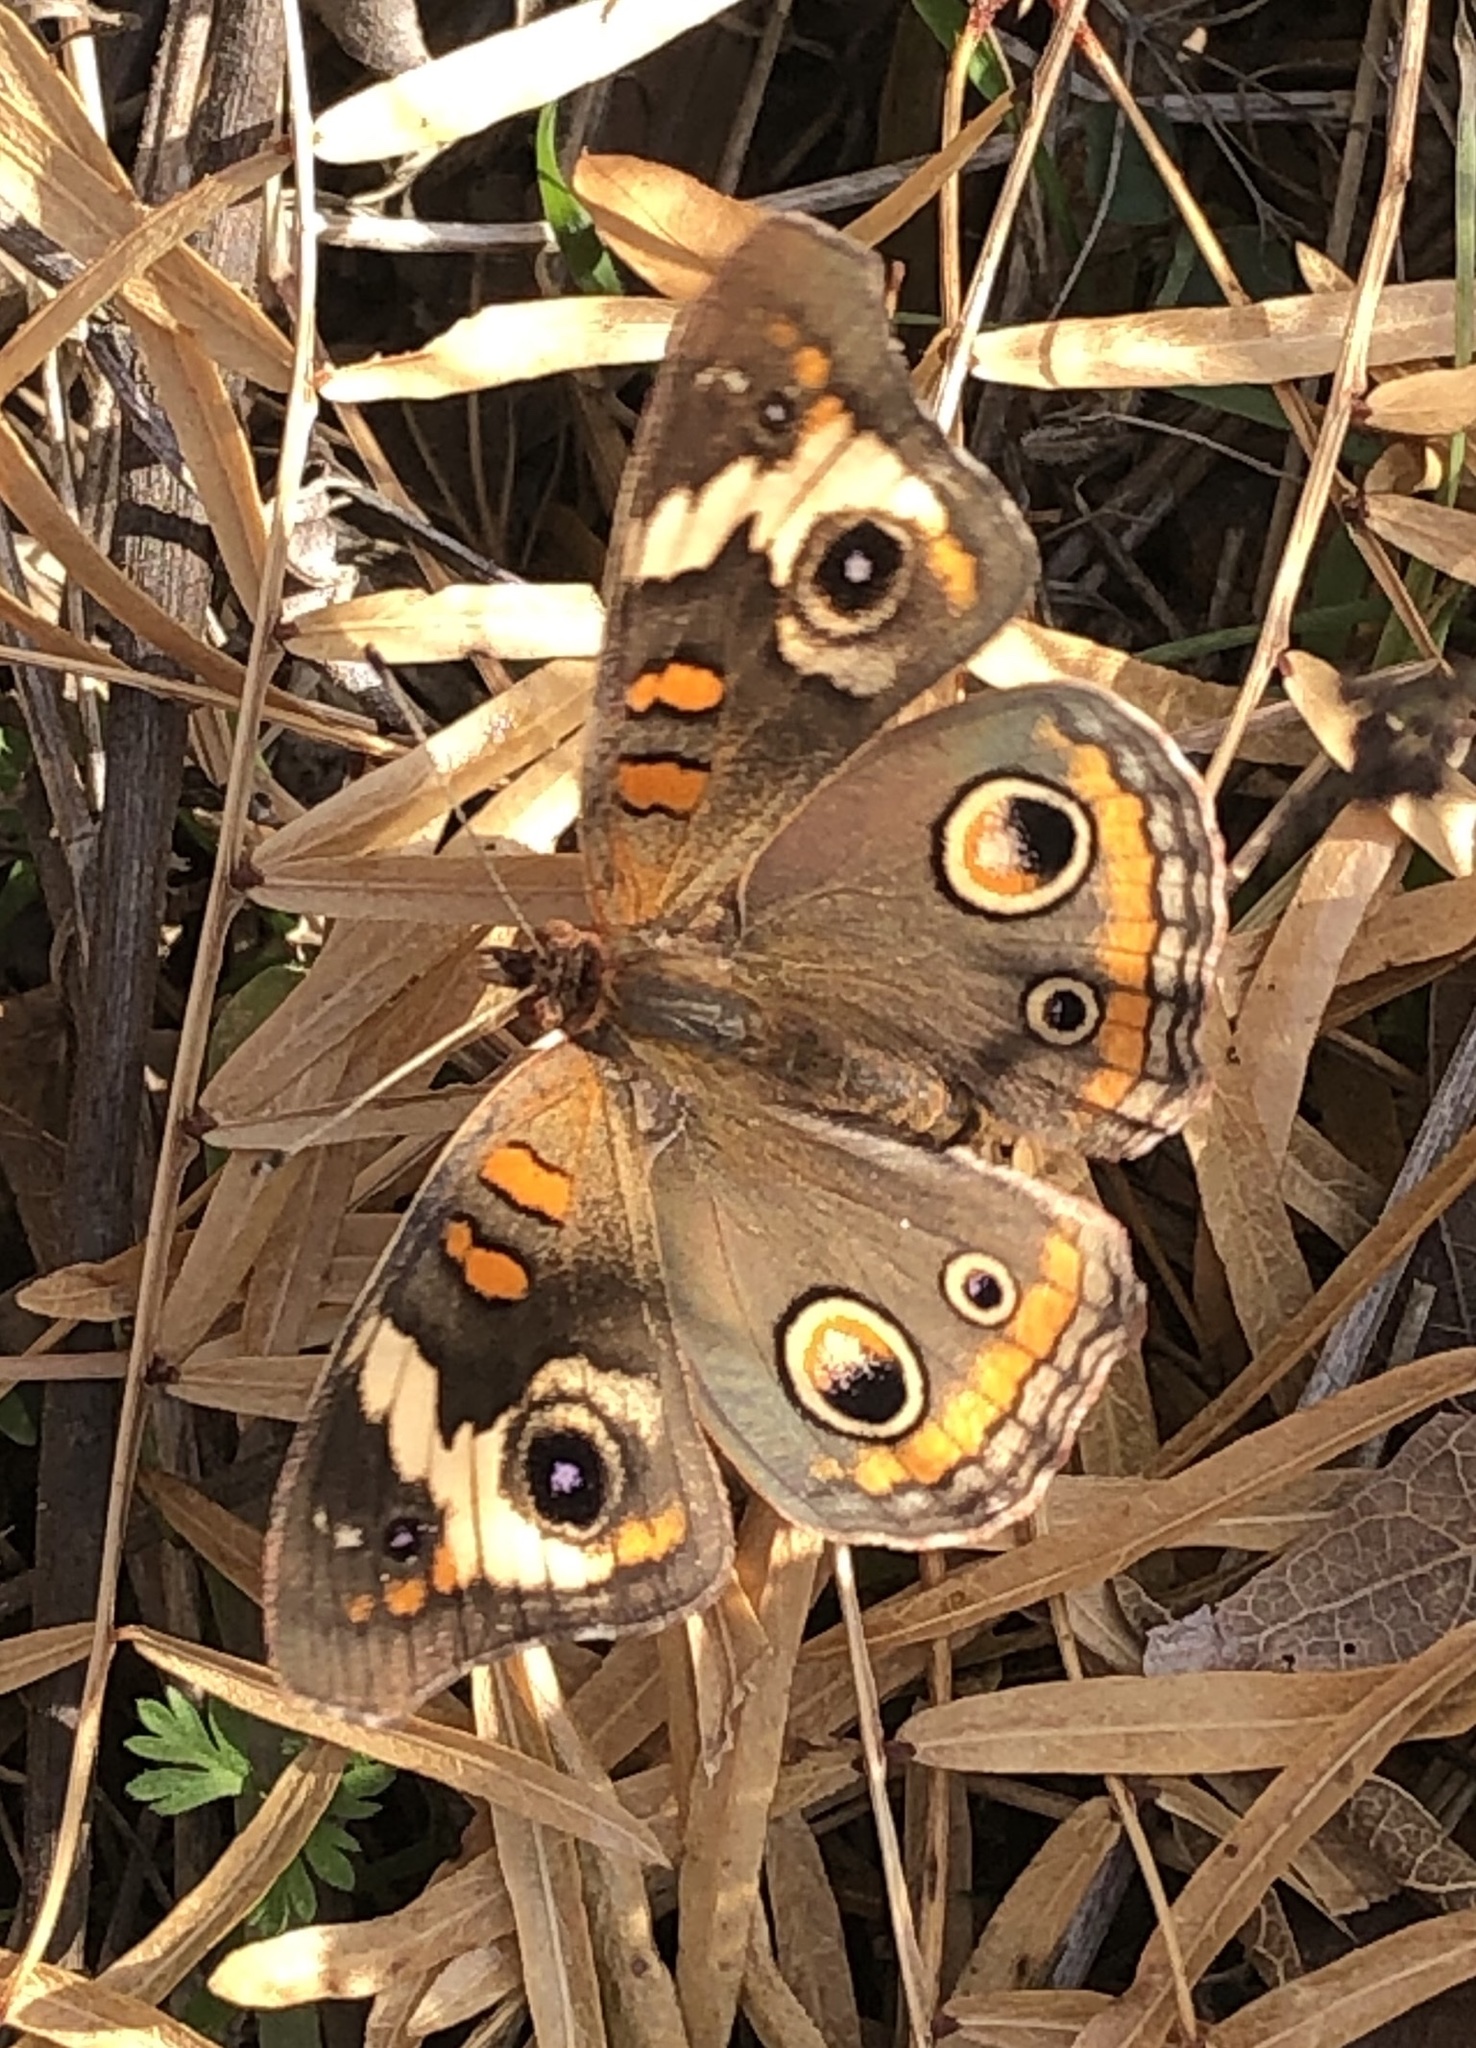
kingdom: Animalia
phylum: Arthropoda
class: Insecta
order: Lepidoptera
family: Nymphalidae
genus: Junonia
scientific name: Junonia coenia
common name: Common buckeye
